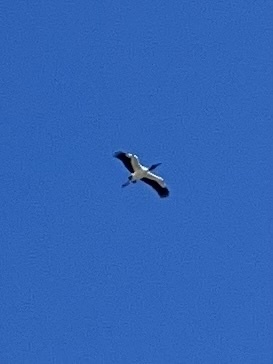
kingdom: Animalia
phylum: Chordata
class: Aves
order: Ciconiiformes
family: Ciconiidae
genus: Mycteria
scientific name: Mycteria americana
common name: Wood stork
